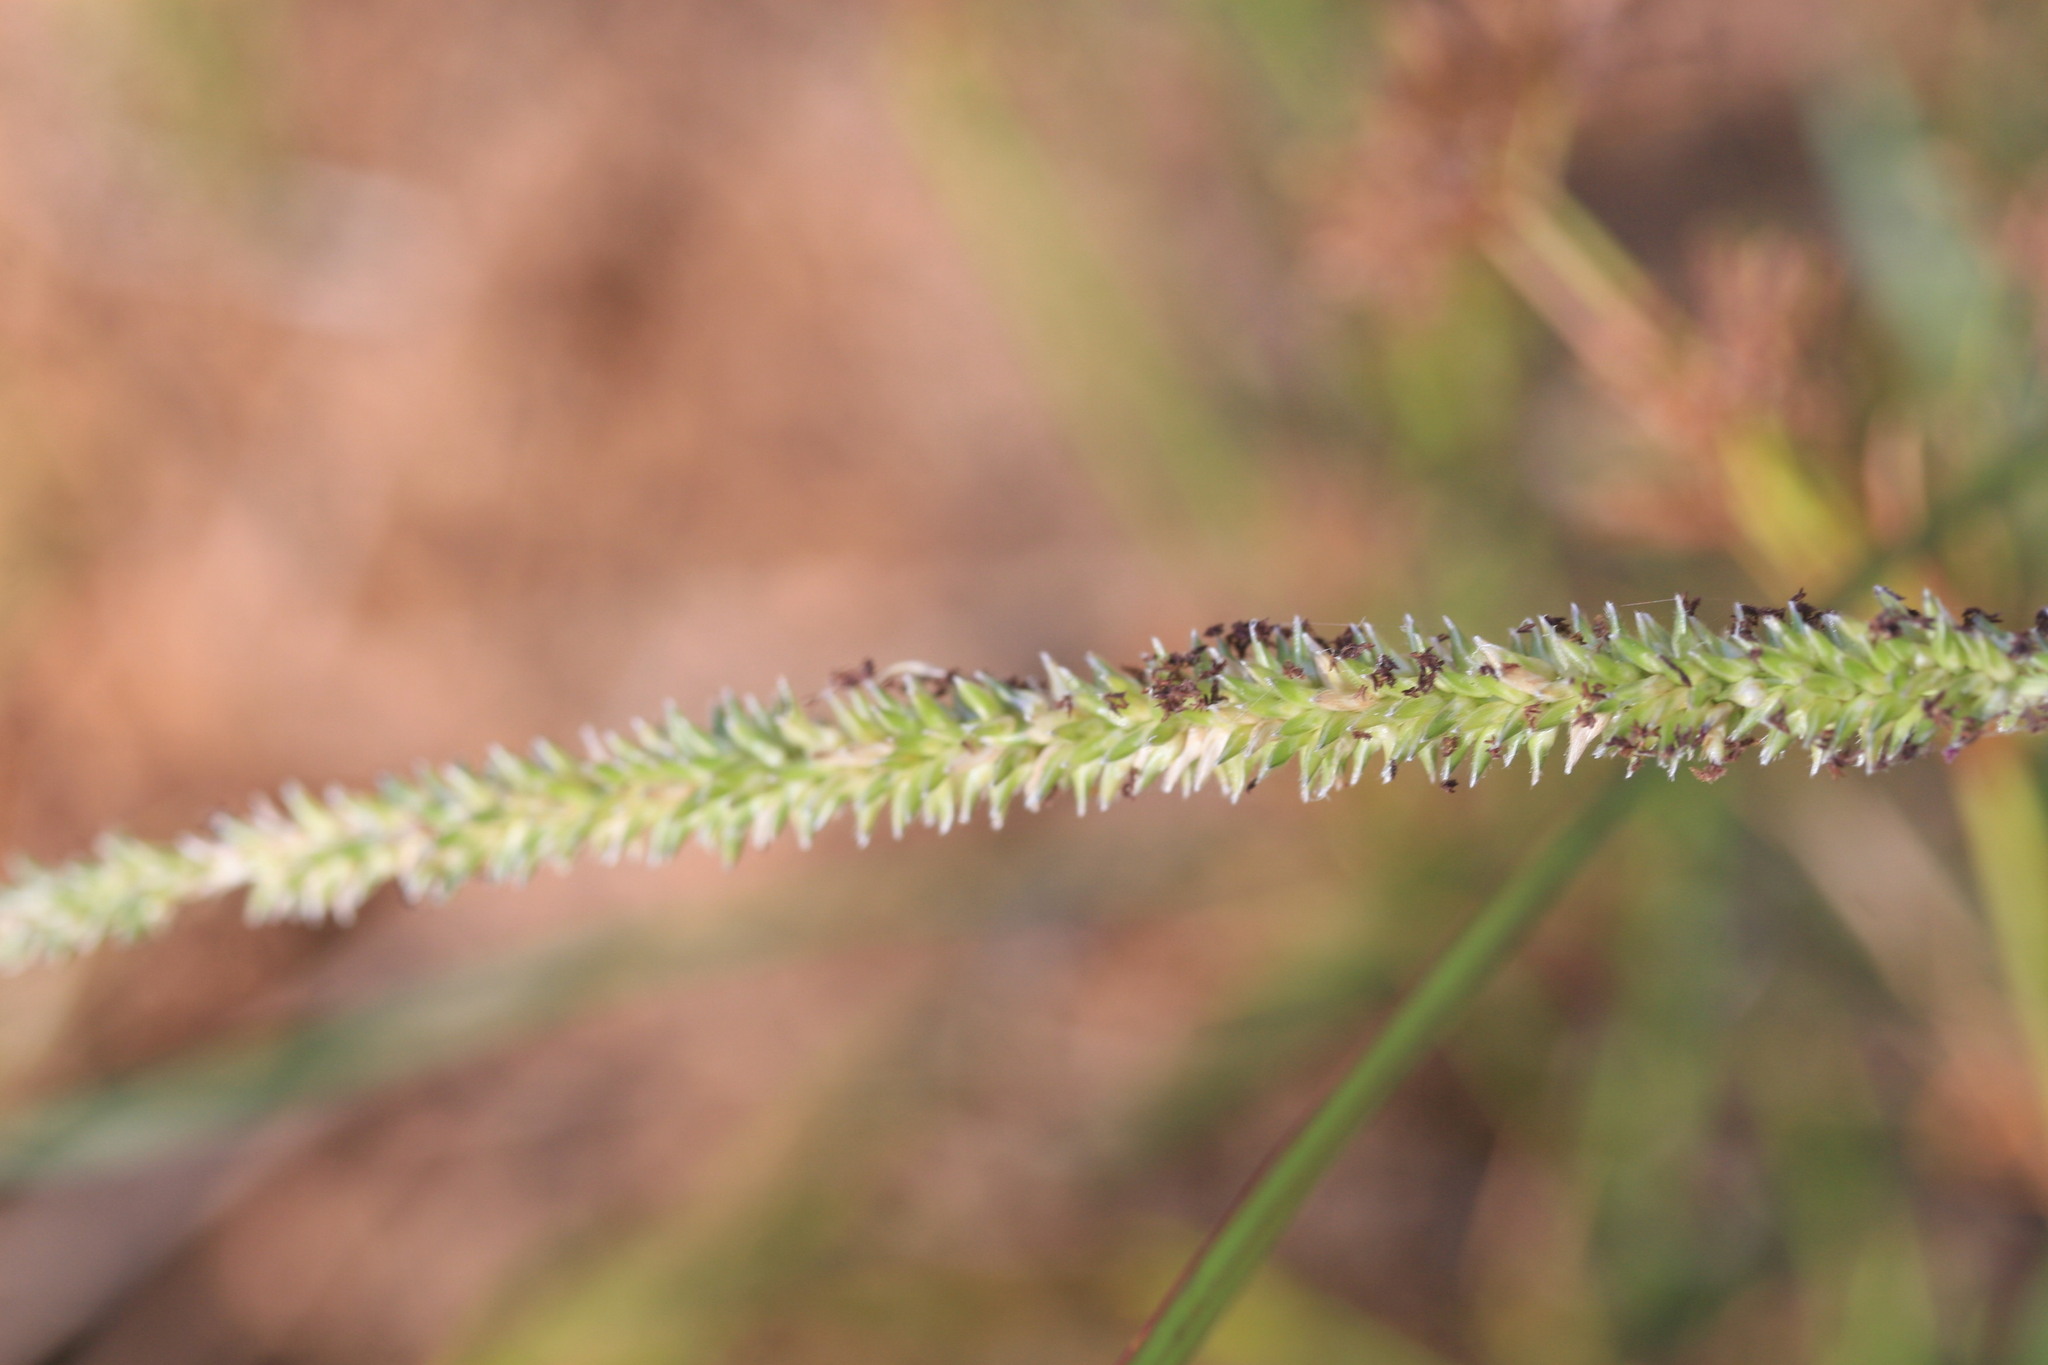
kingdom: Plantae
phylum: Tracheophyta
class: Liliopsida
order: Poales
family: Poaceae
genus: Sacciolepis
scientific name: Sacciolepis indica
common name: Glenwoodgrass
